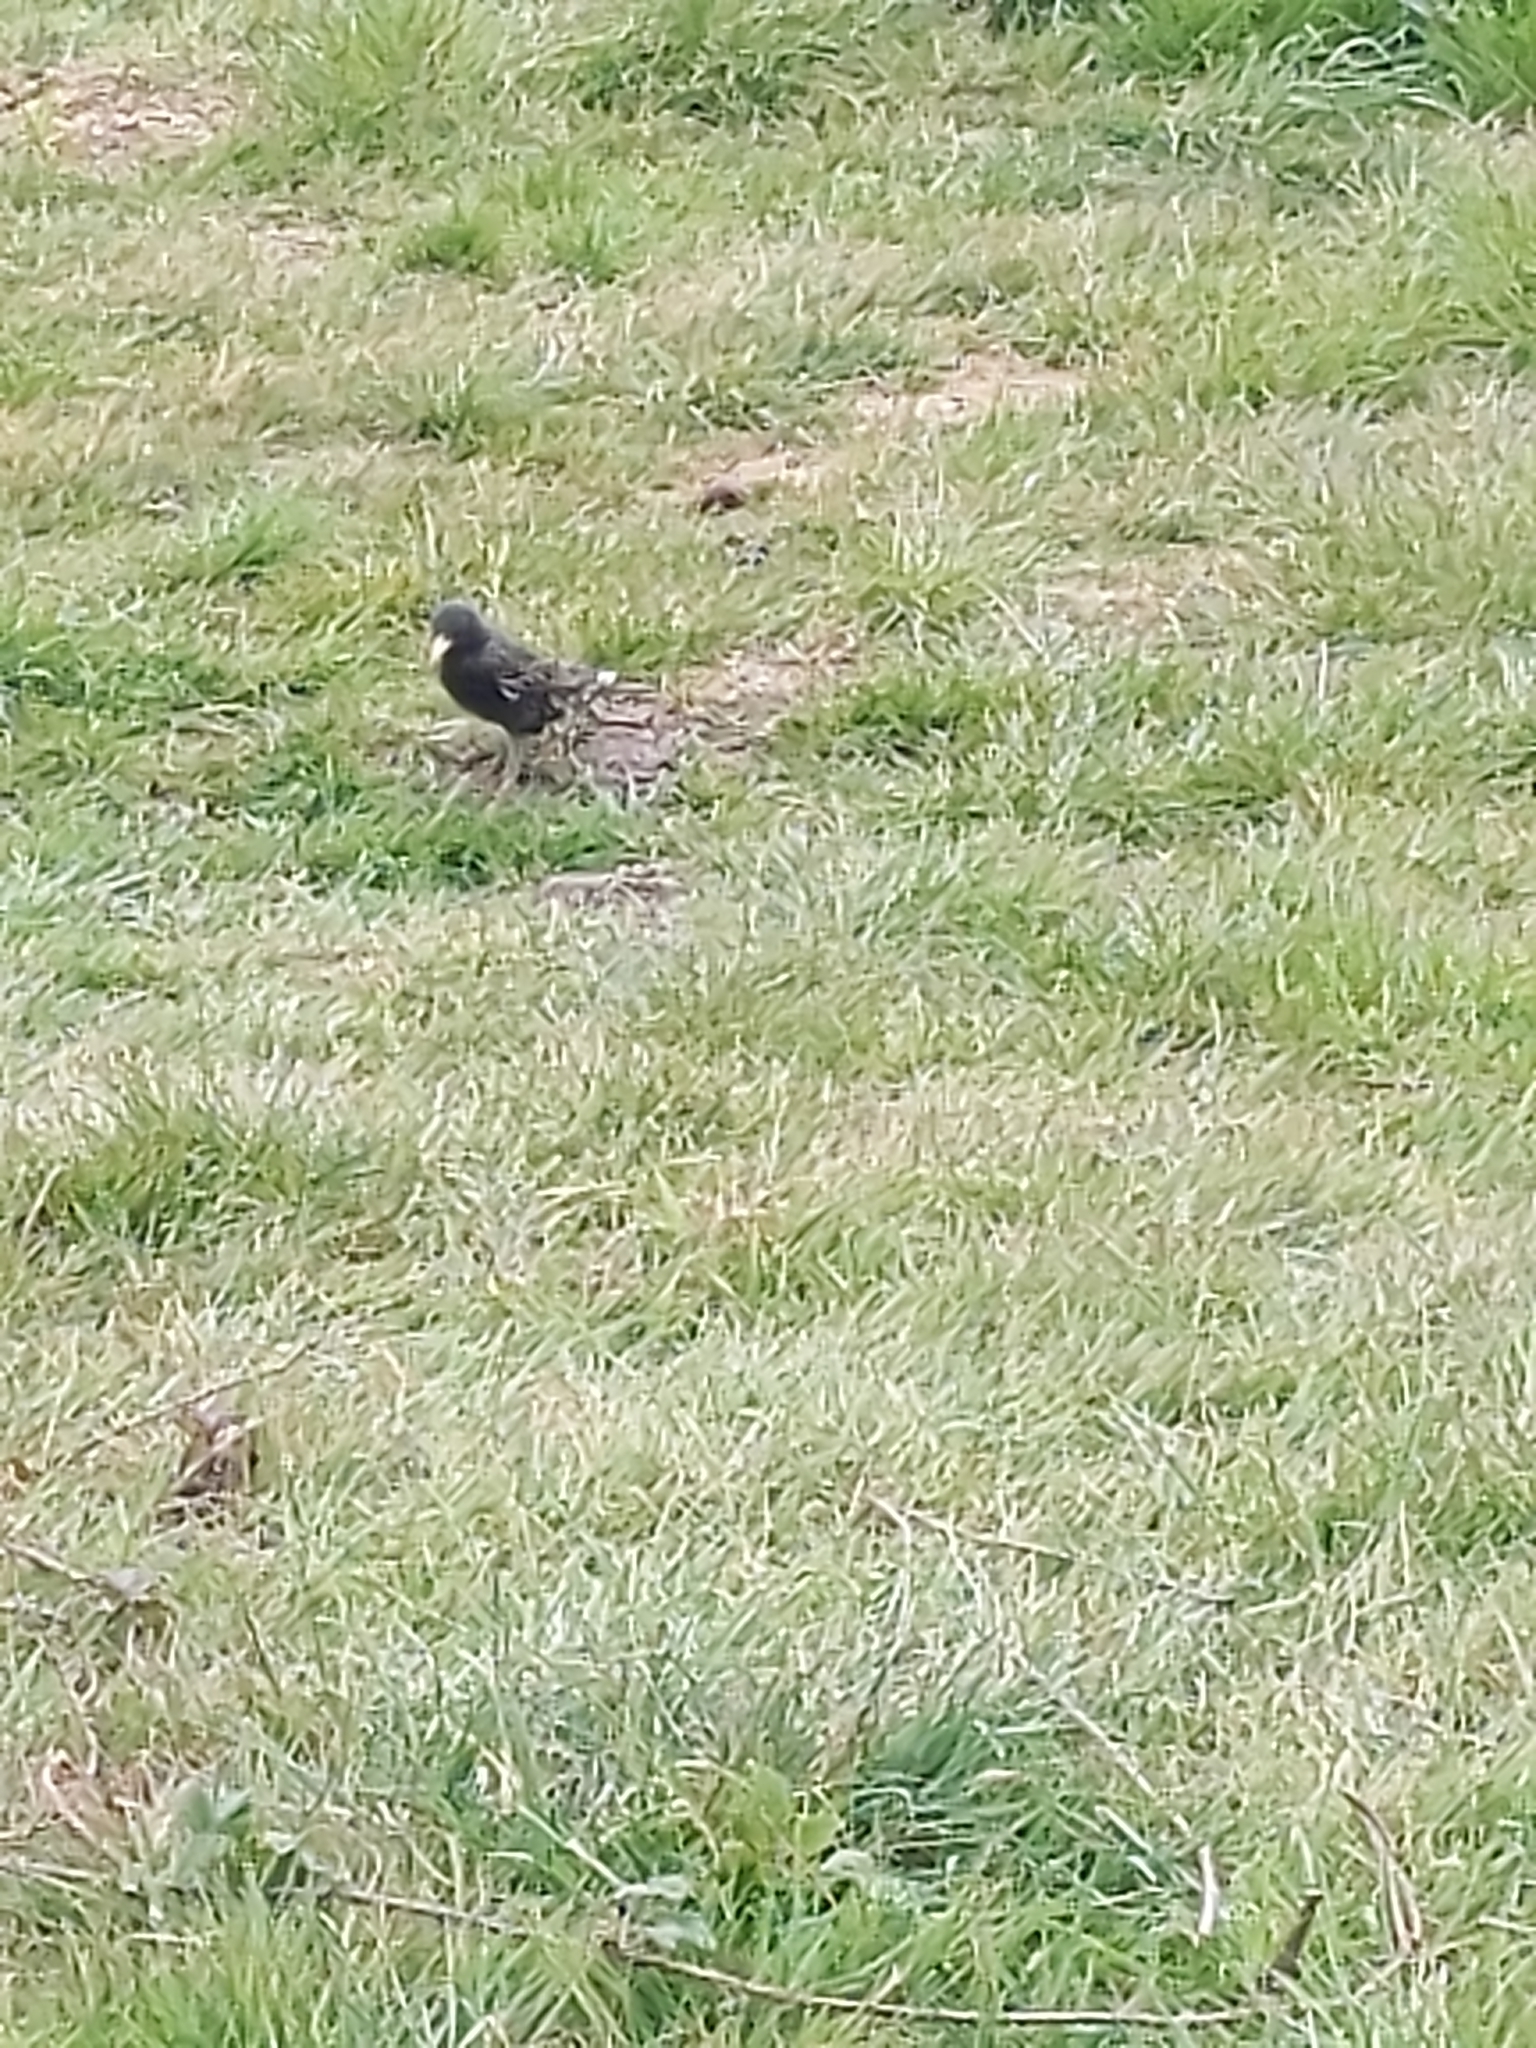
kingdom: Animalia
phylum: Chordata
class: Aves
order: Passeriformes
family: Sturnidae
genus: Sturnus
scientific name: Sturnus vulgaris
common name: Common starling
